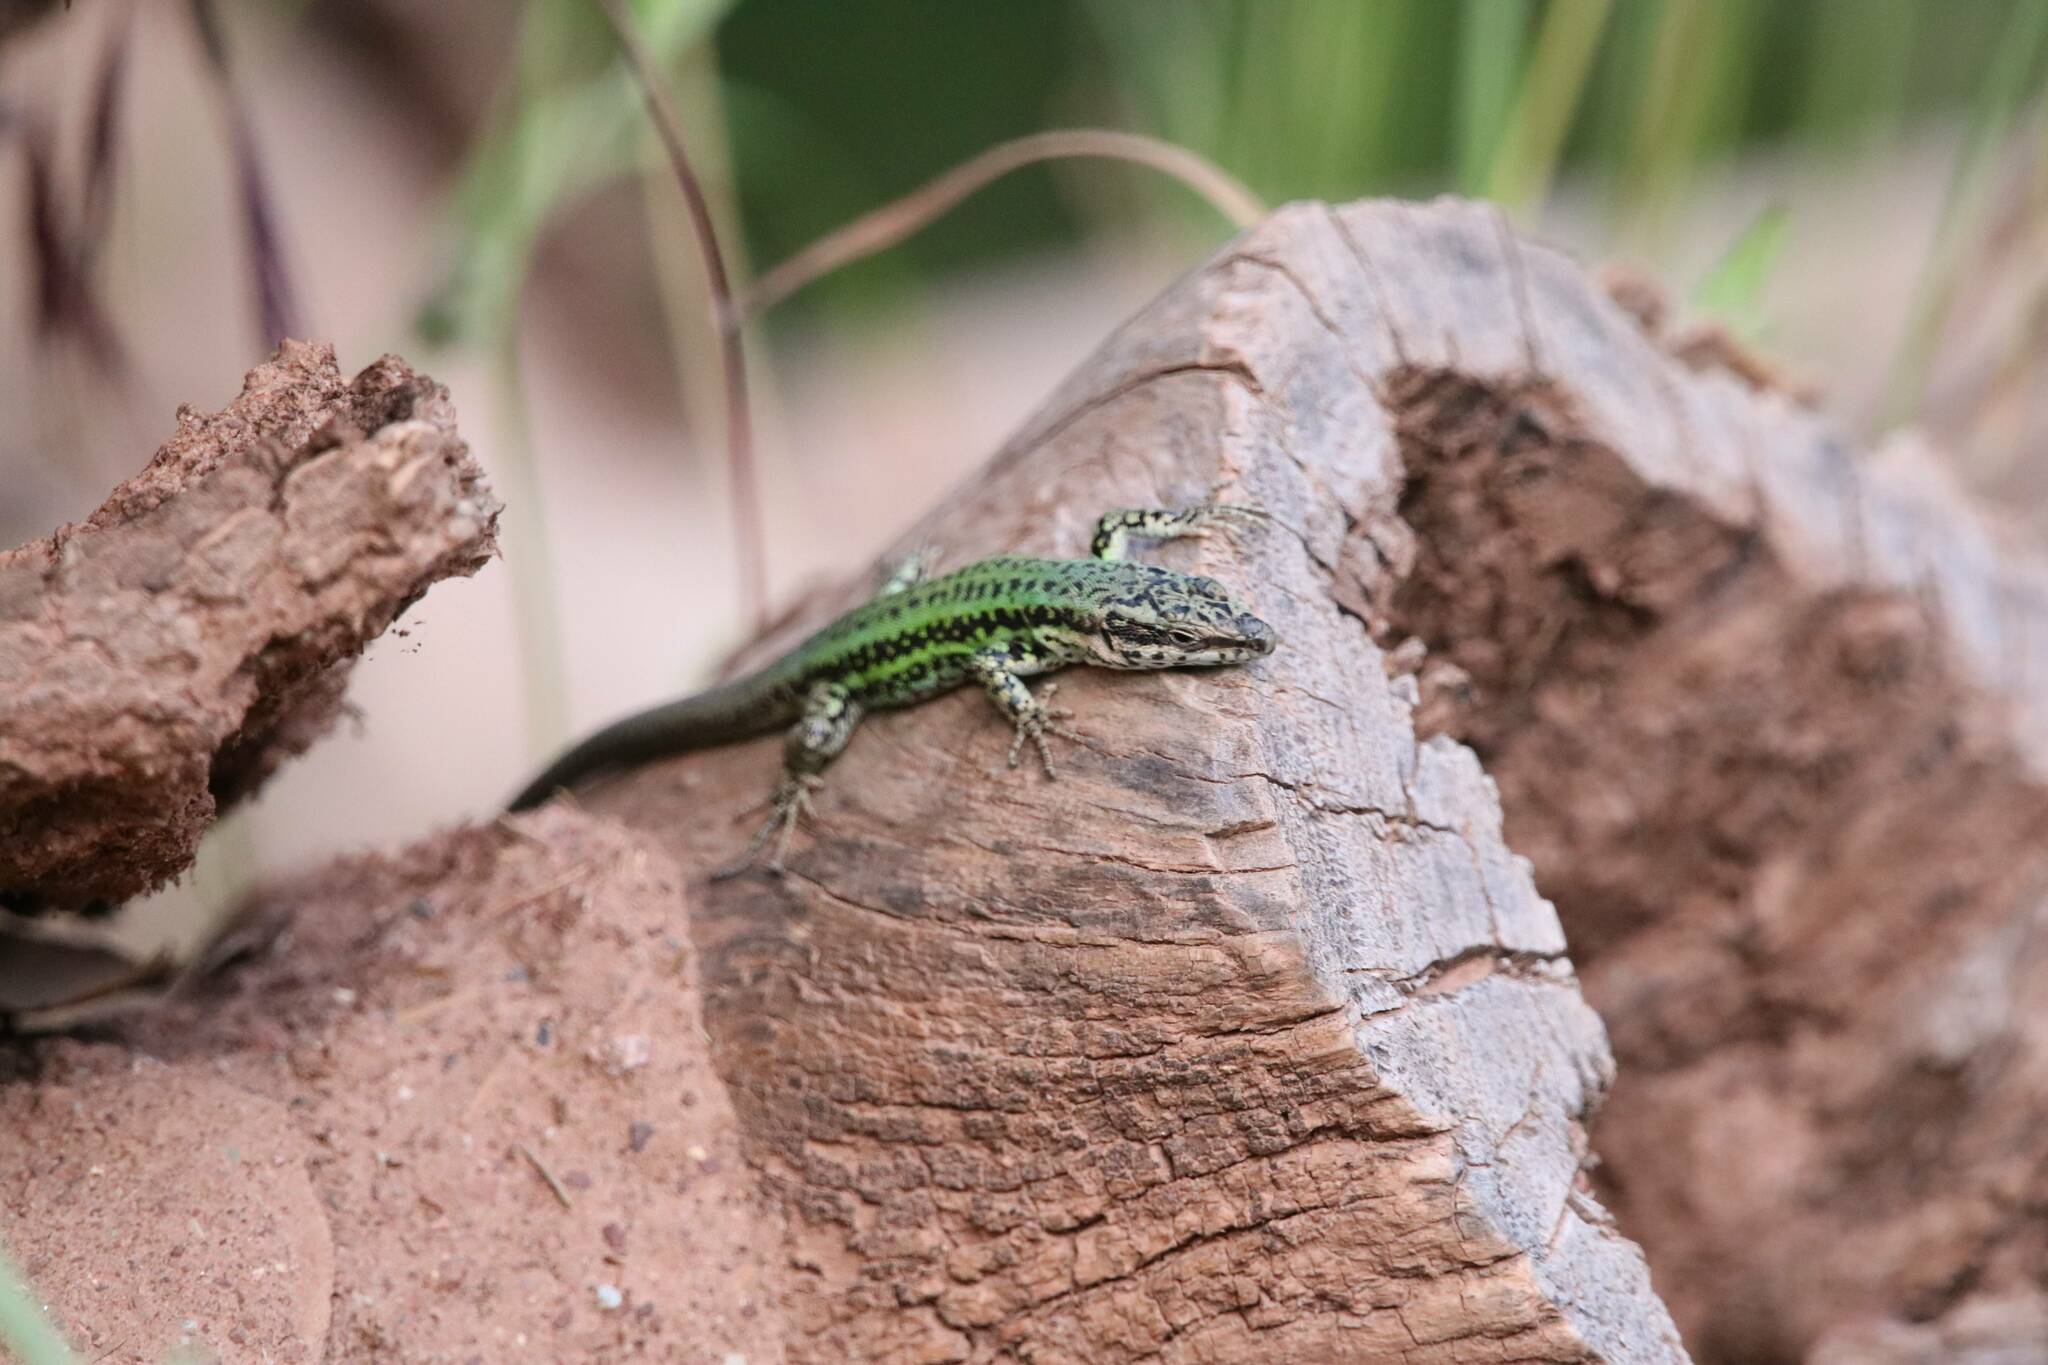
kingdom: Animalia
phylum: Chordata
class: Squamata
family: Lacertidae
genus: Podarcis
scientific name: Podarcis vaucheri
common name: Vaucher's wall lizard
